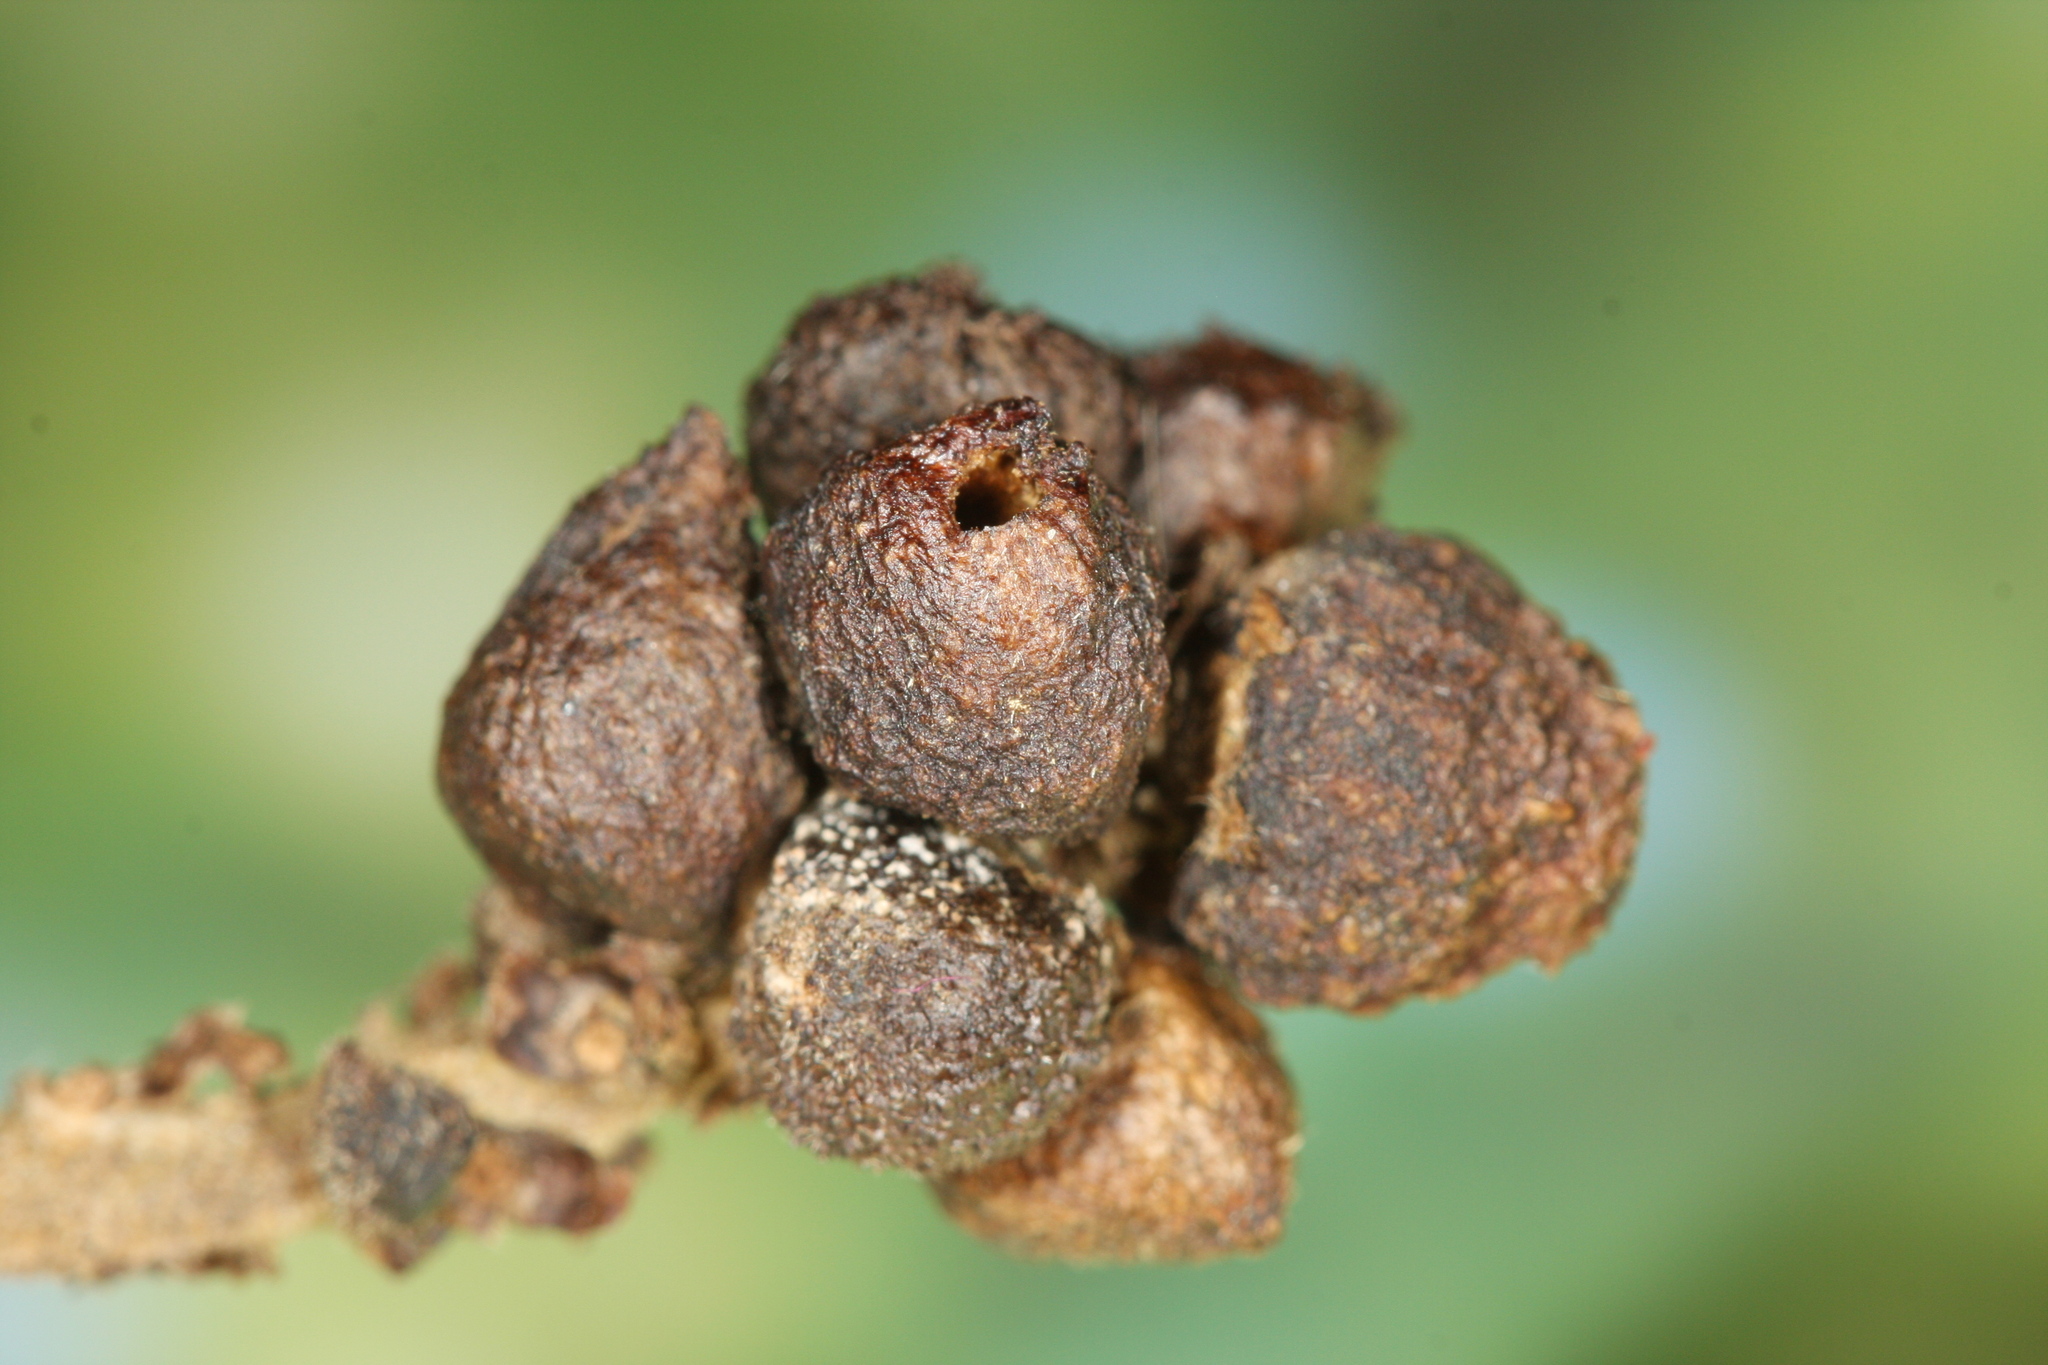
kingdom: Animalia
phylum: Arthropoda
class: Insecta
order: Hymenoptera
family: Cynipidae
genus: Andricus
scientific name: Andricus grossulariae
